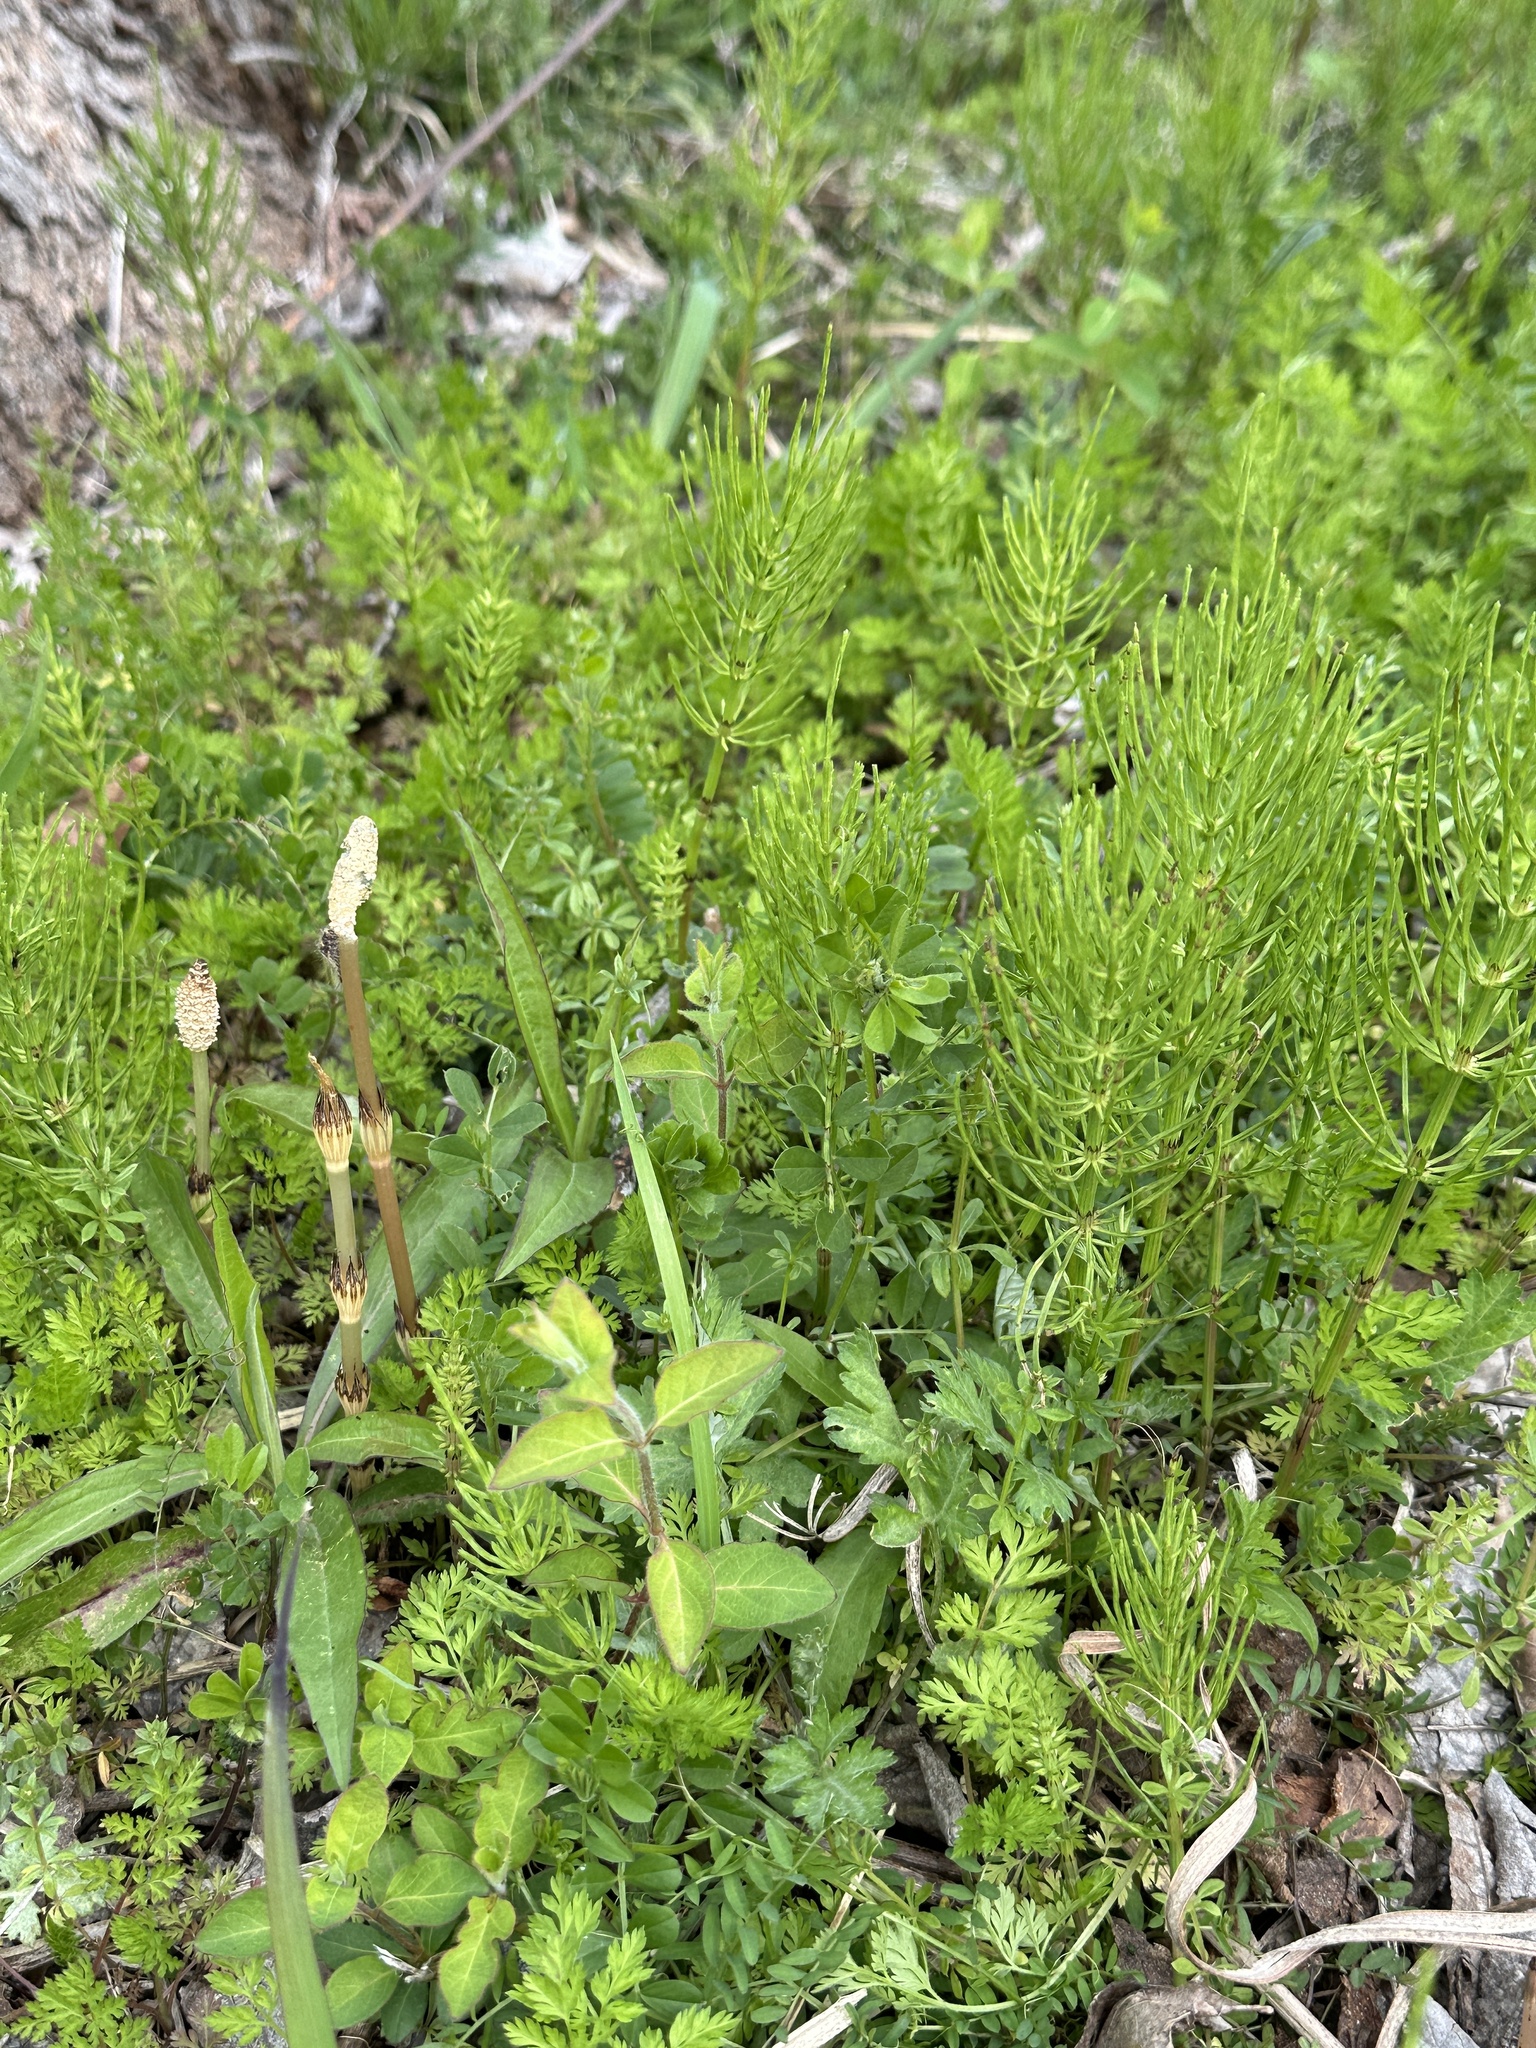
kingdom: Plantae
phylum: Tracheophyta
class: Polypodiopsida
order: Equisetales
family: Equisetaceae
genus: Equisetum
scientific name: Equisetum arvense
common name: Field horsetail
